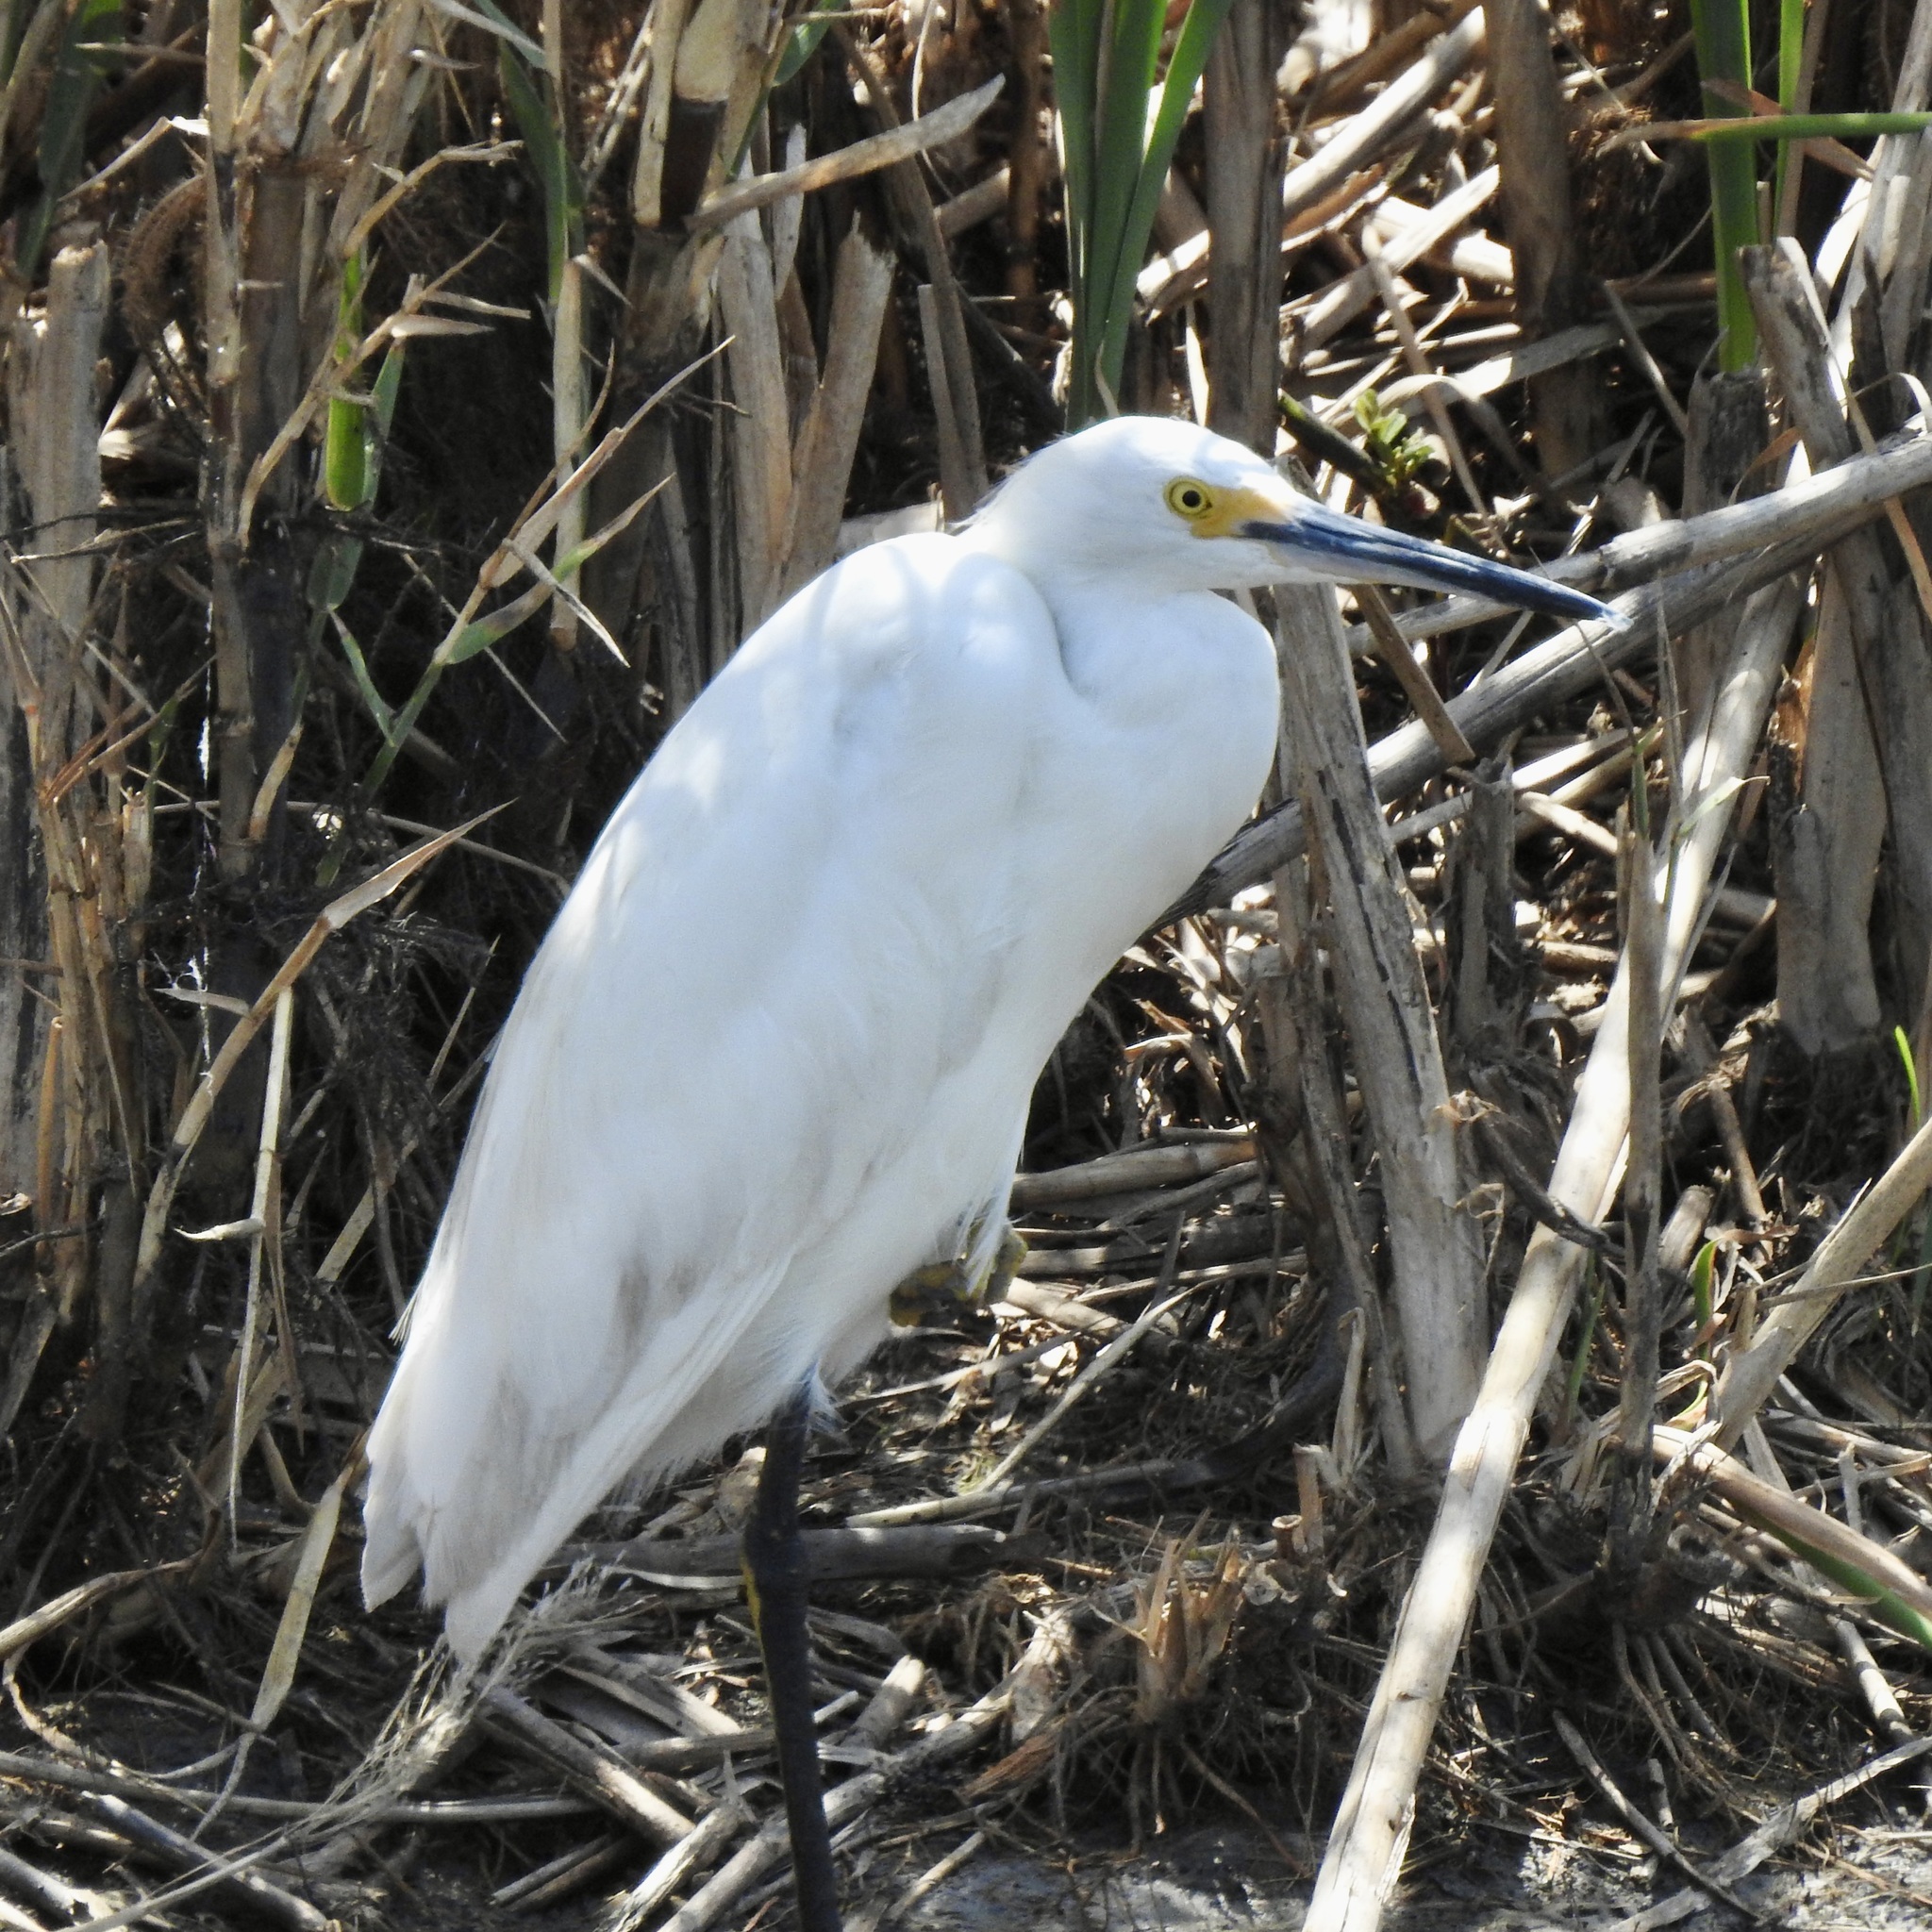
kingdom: Animalia
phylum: Chordata
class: Aves
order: Pelecaniformes
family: Ardeidae
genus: Egretta
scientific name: Egretta thula
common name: Snowy egret
